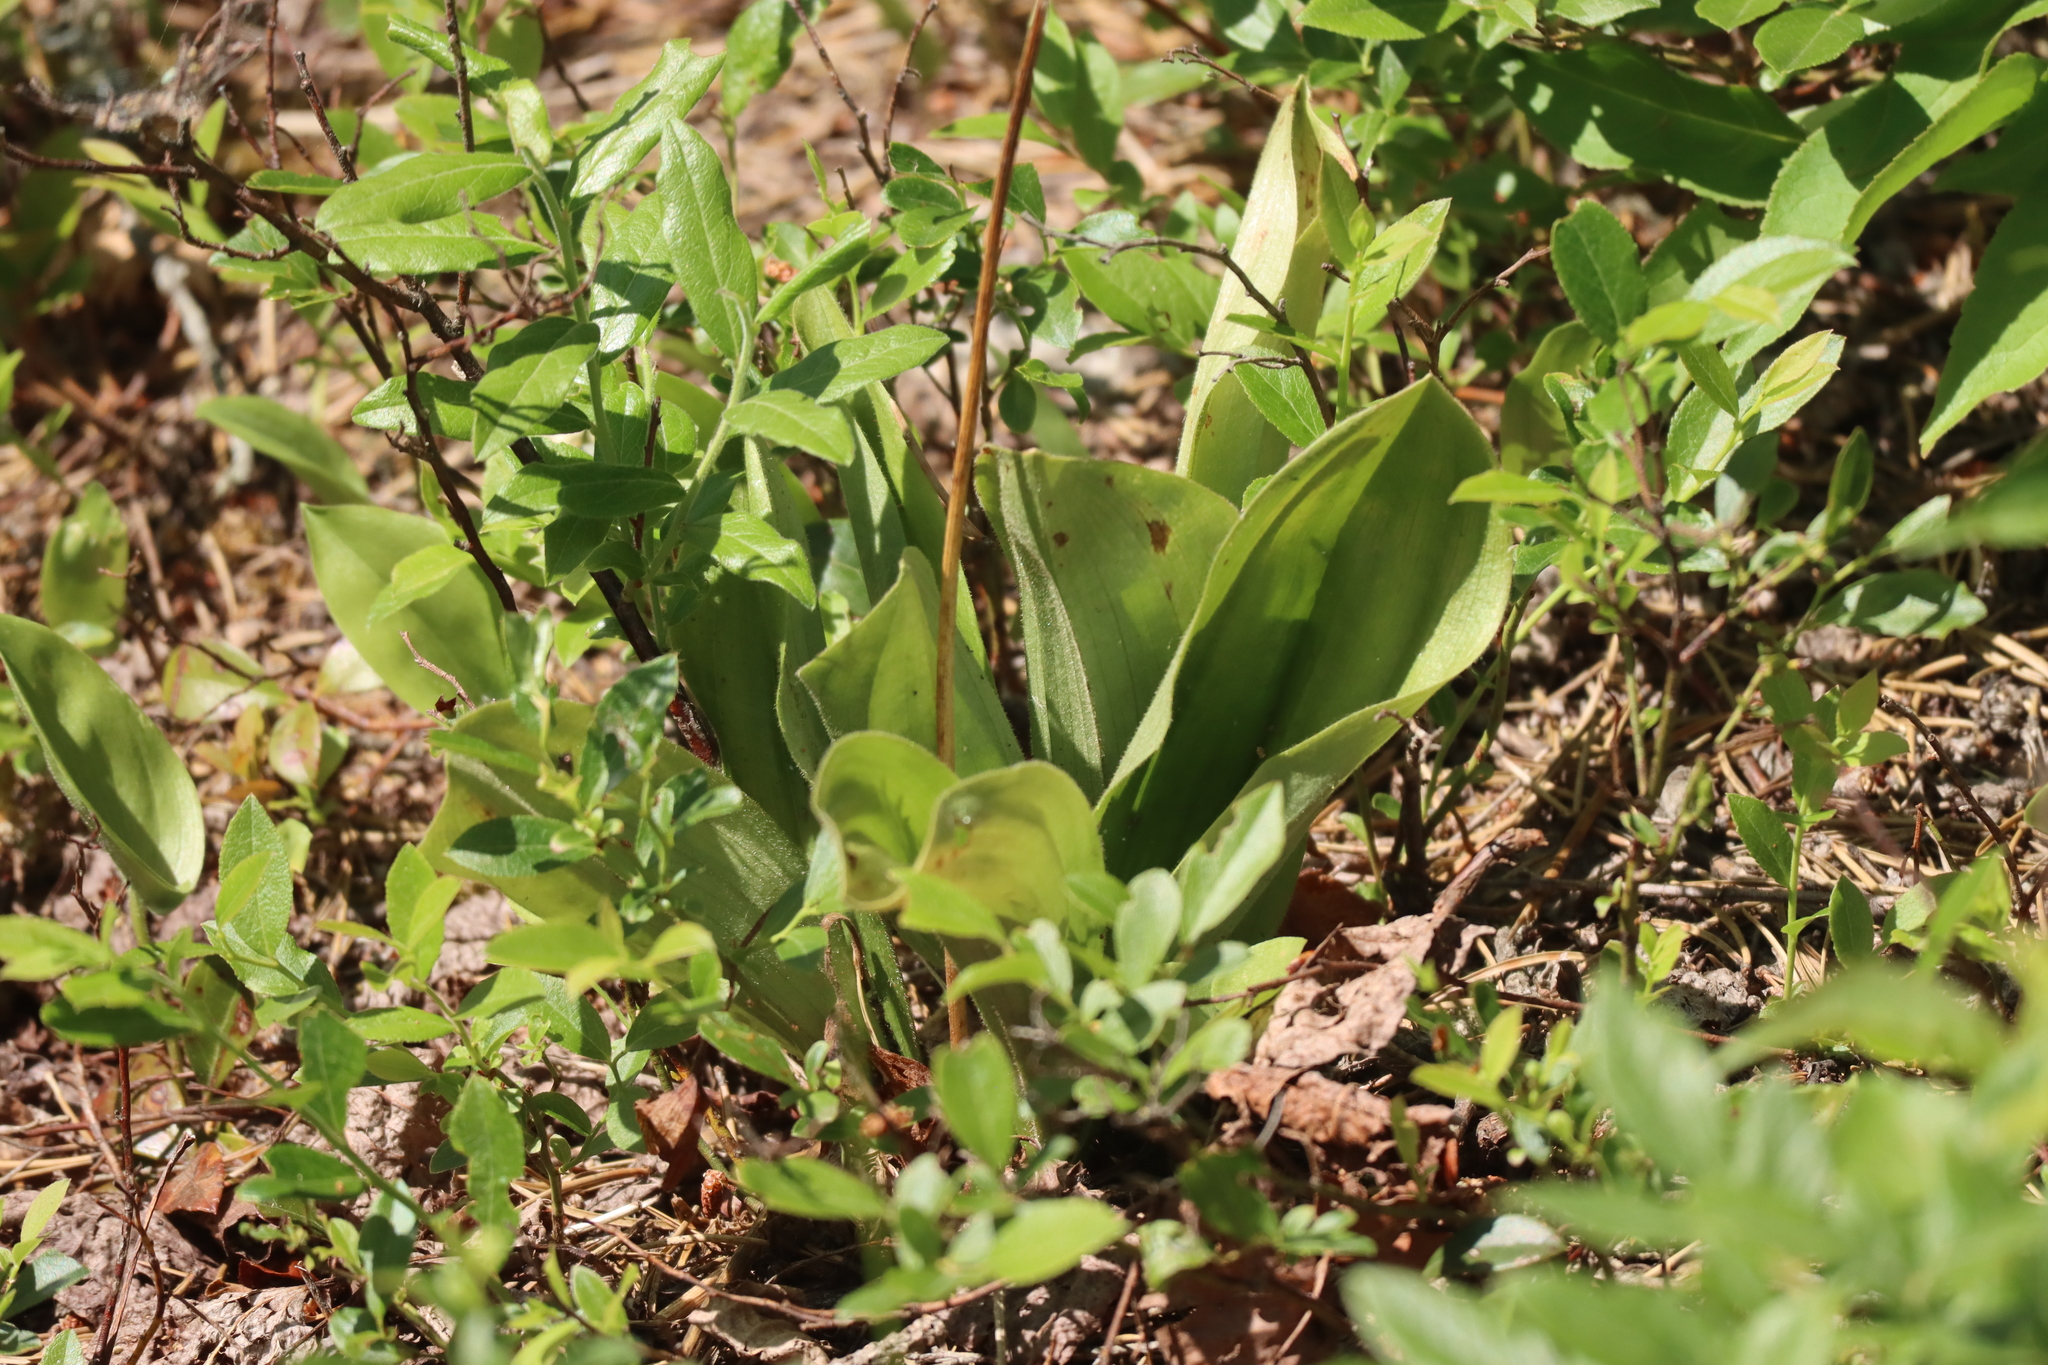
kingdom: Plantae
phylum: Tracheophyta
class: Liliopsida
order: Asparagales
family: Orchidaceae
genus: Cypripedium
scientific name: Cypripedium acaule
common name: Pink lady's-slipper
